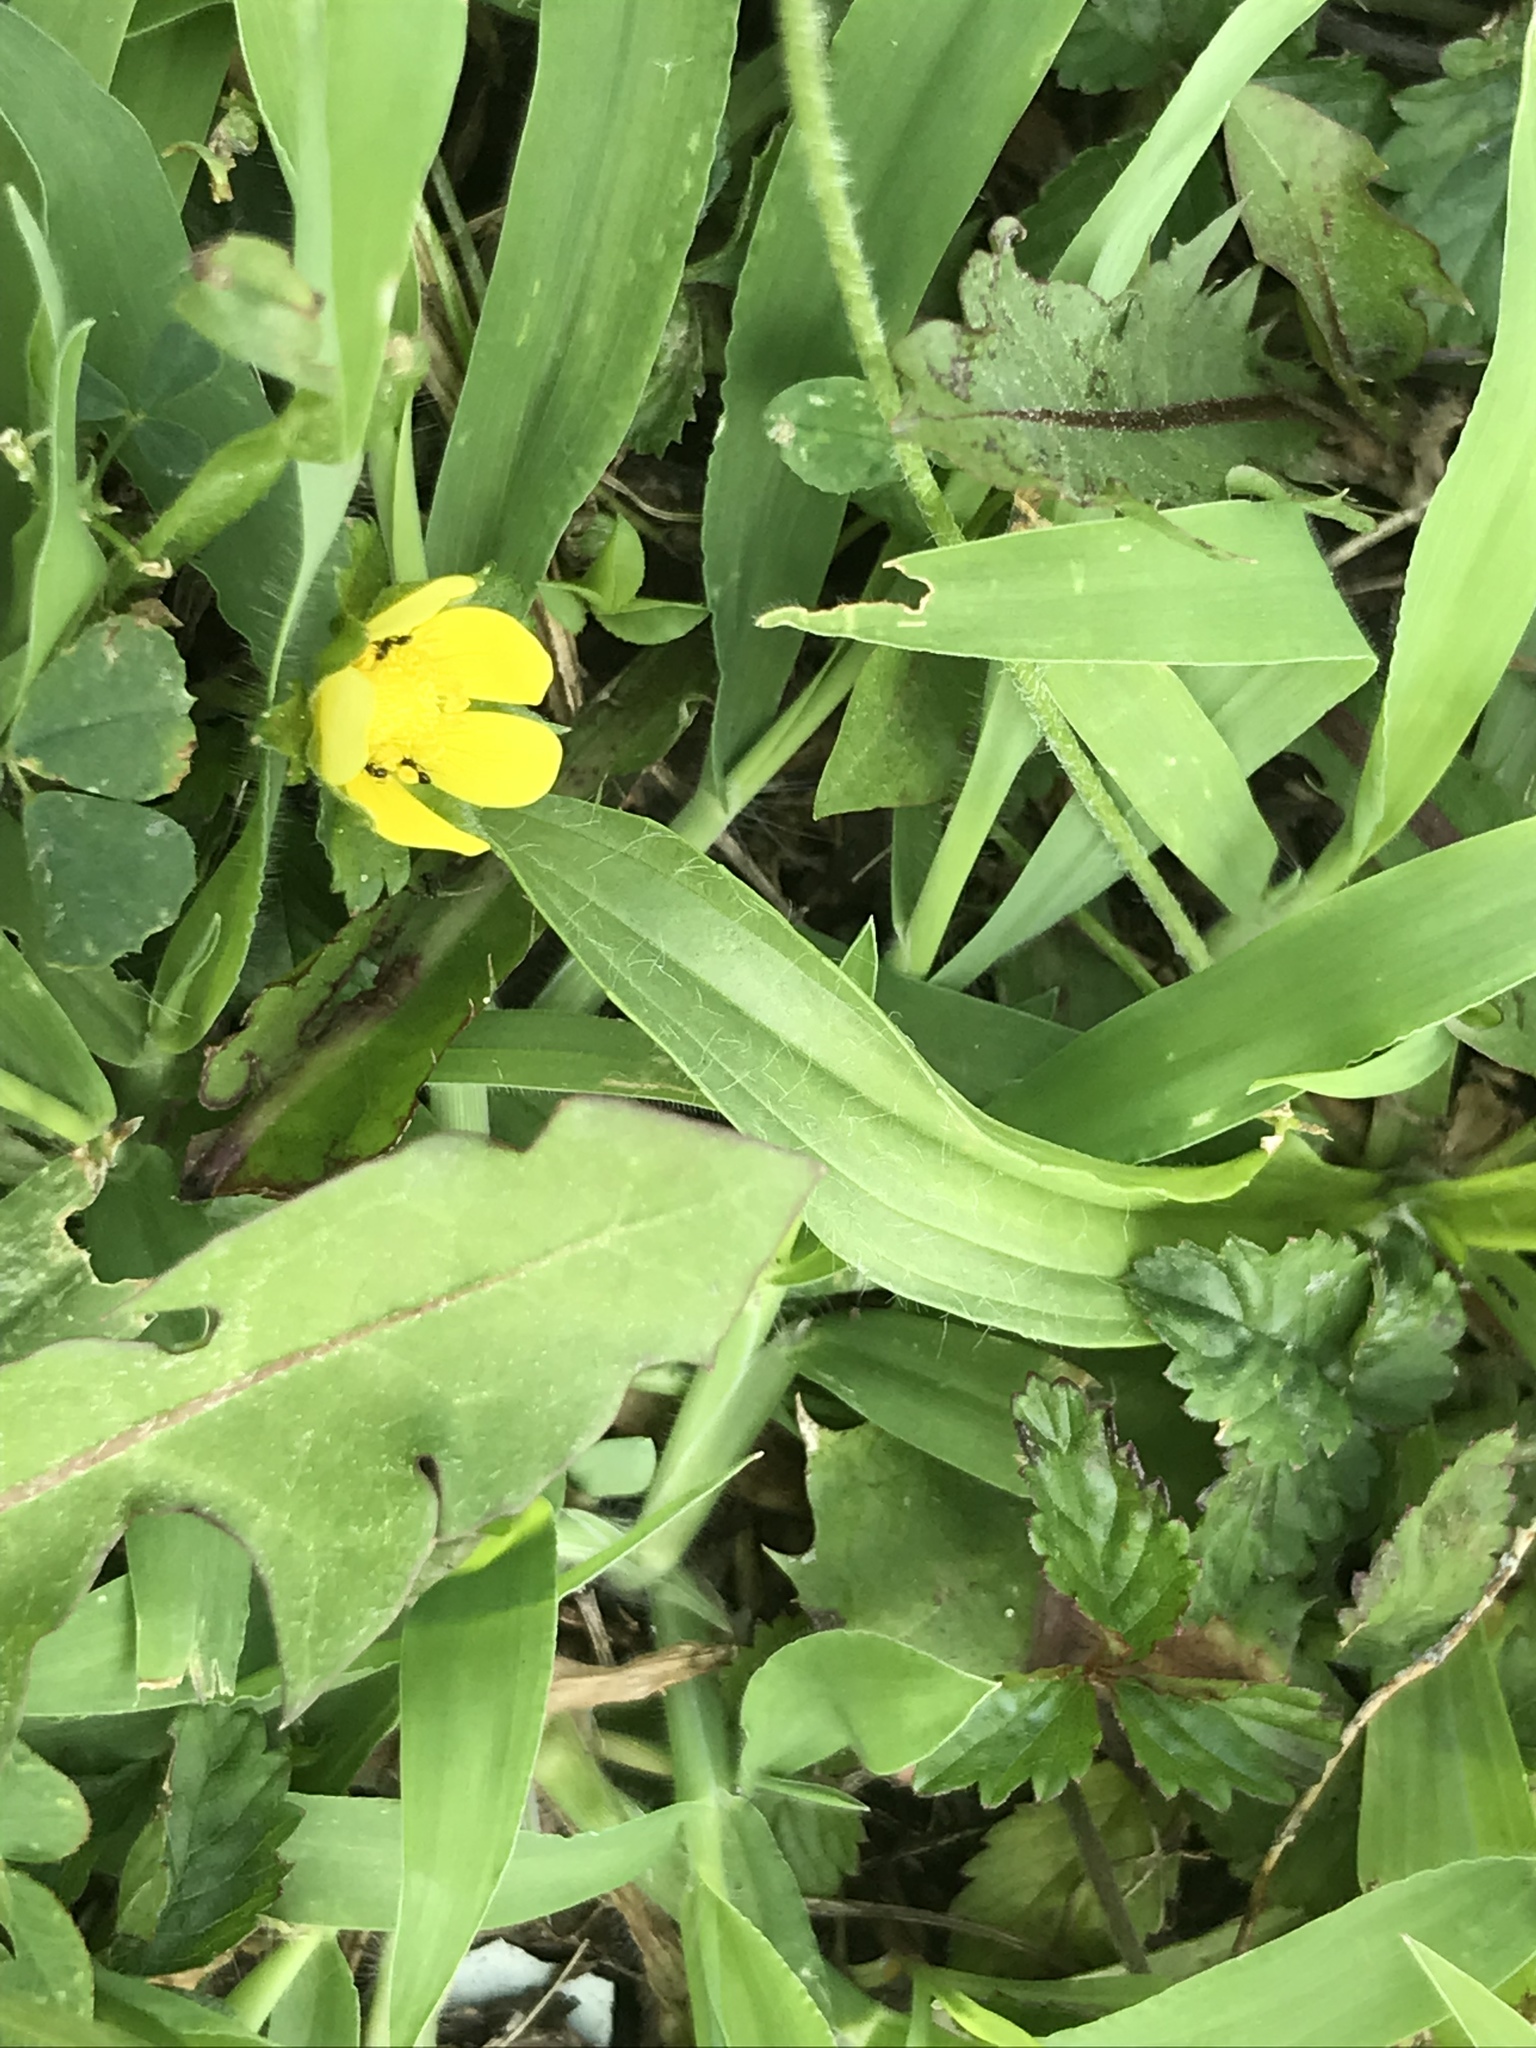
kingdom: Plantae
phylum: Tracheophyta
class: Magnoliopsida
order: Rosales
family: Rosaceae
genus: Potentilla
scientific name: Potentilla indica
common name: Yellow-flowered strawberry
